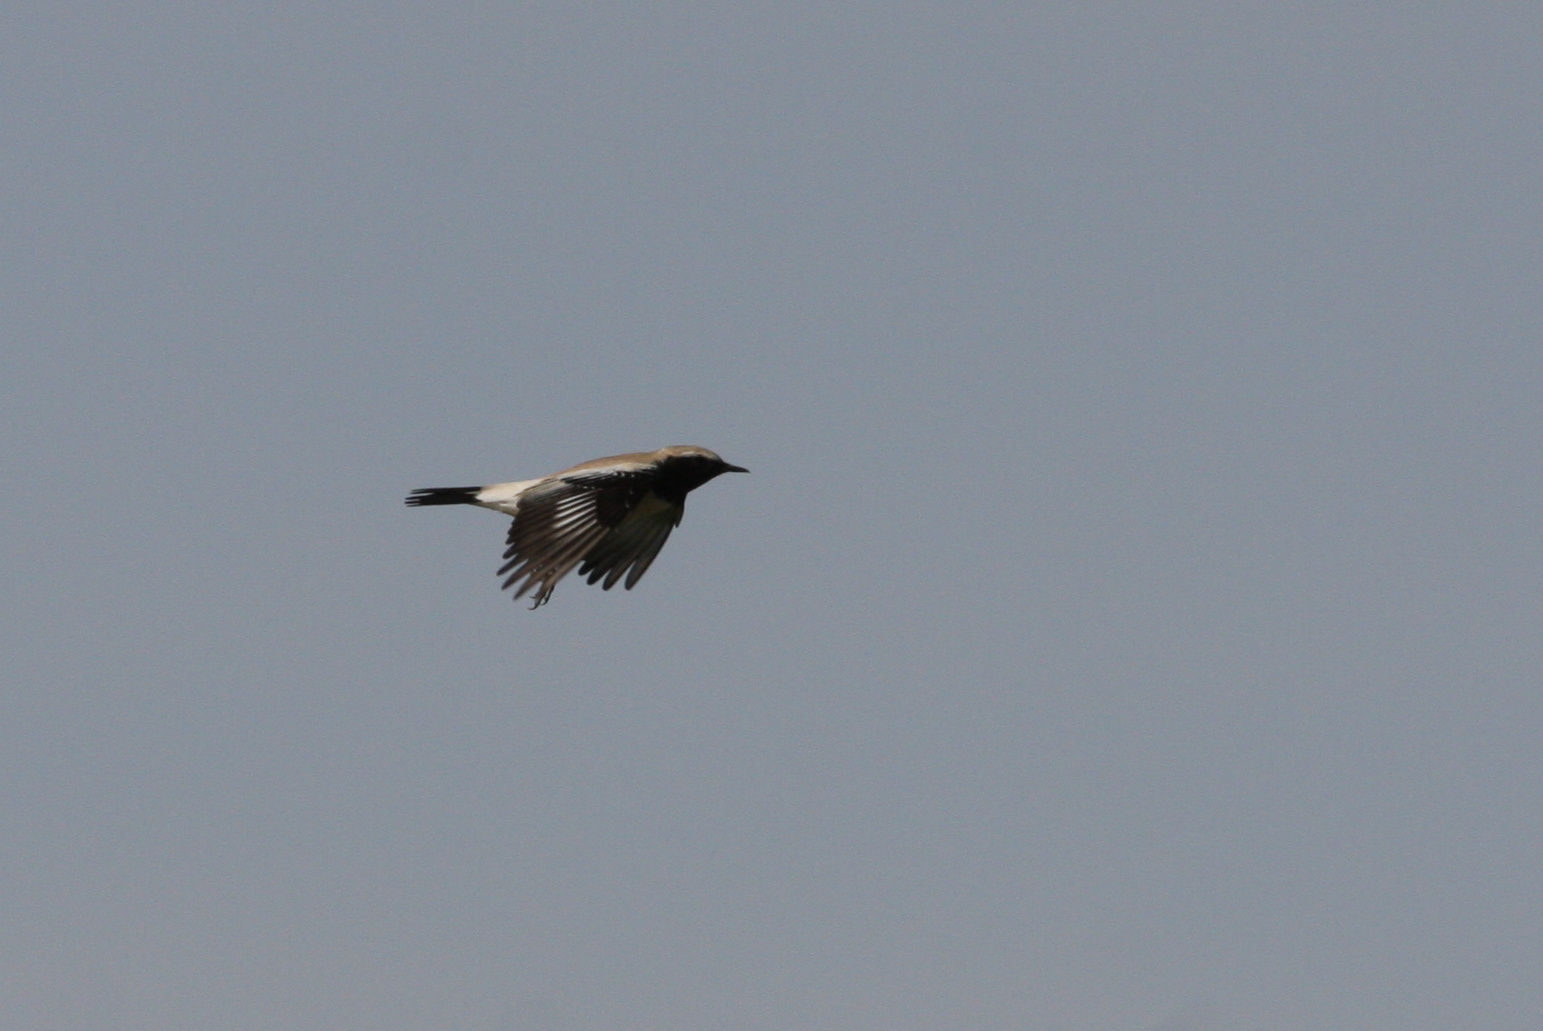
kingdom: Animalia
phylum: Chordata
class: Aves
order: Passeriformes
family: Muscicapidae
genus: Oenanthe
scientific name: Oenanthe deserti
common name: Desert wheatear
